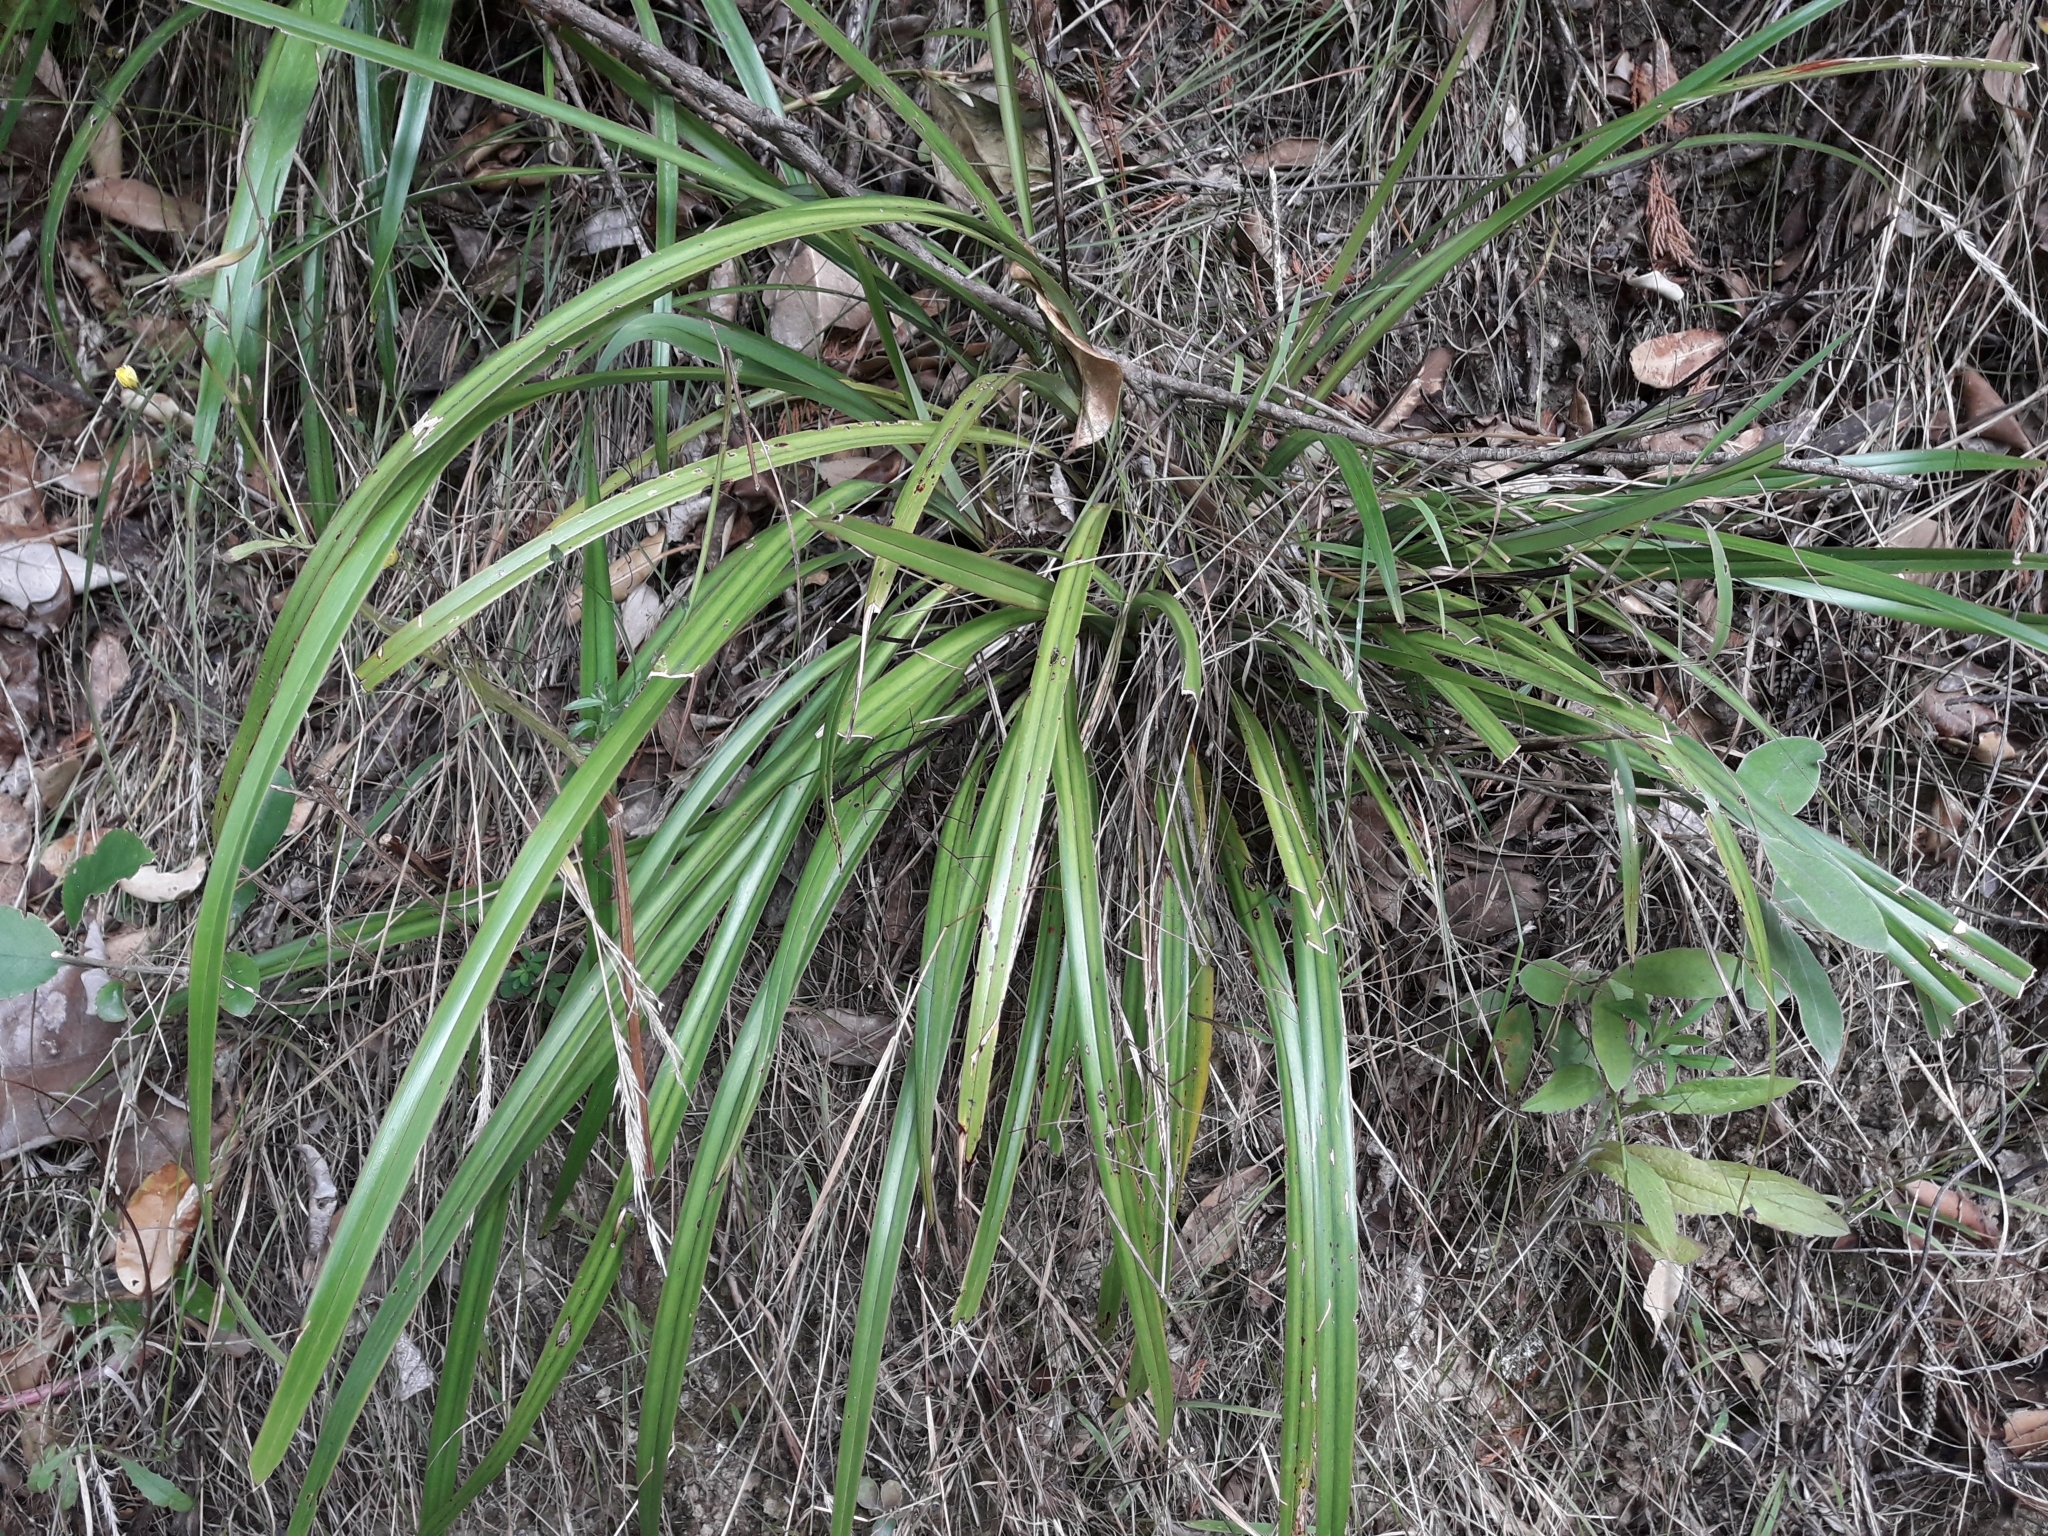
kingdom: Plantae
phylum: Tracheophyta
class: Liliopsida
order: Asparagales
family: Asphodelaceae
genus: Dianella
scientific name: Dianella nigra
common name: New zealand-blueberry
